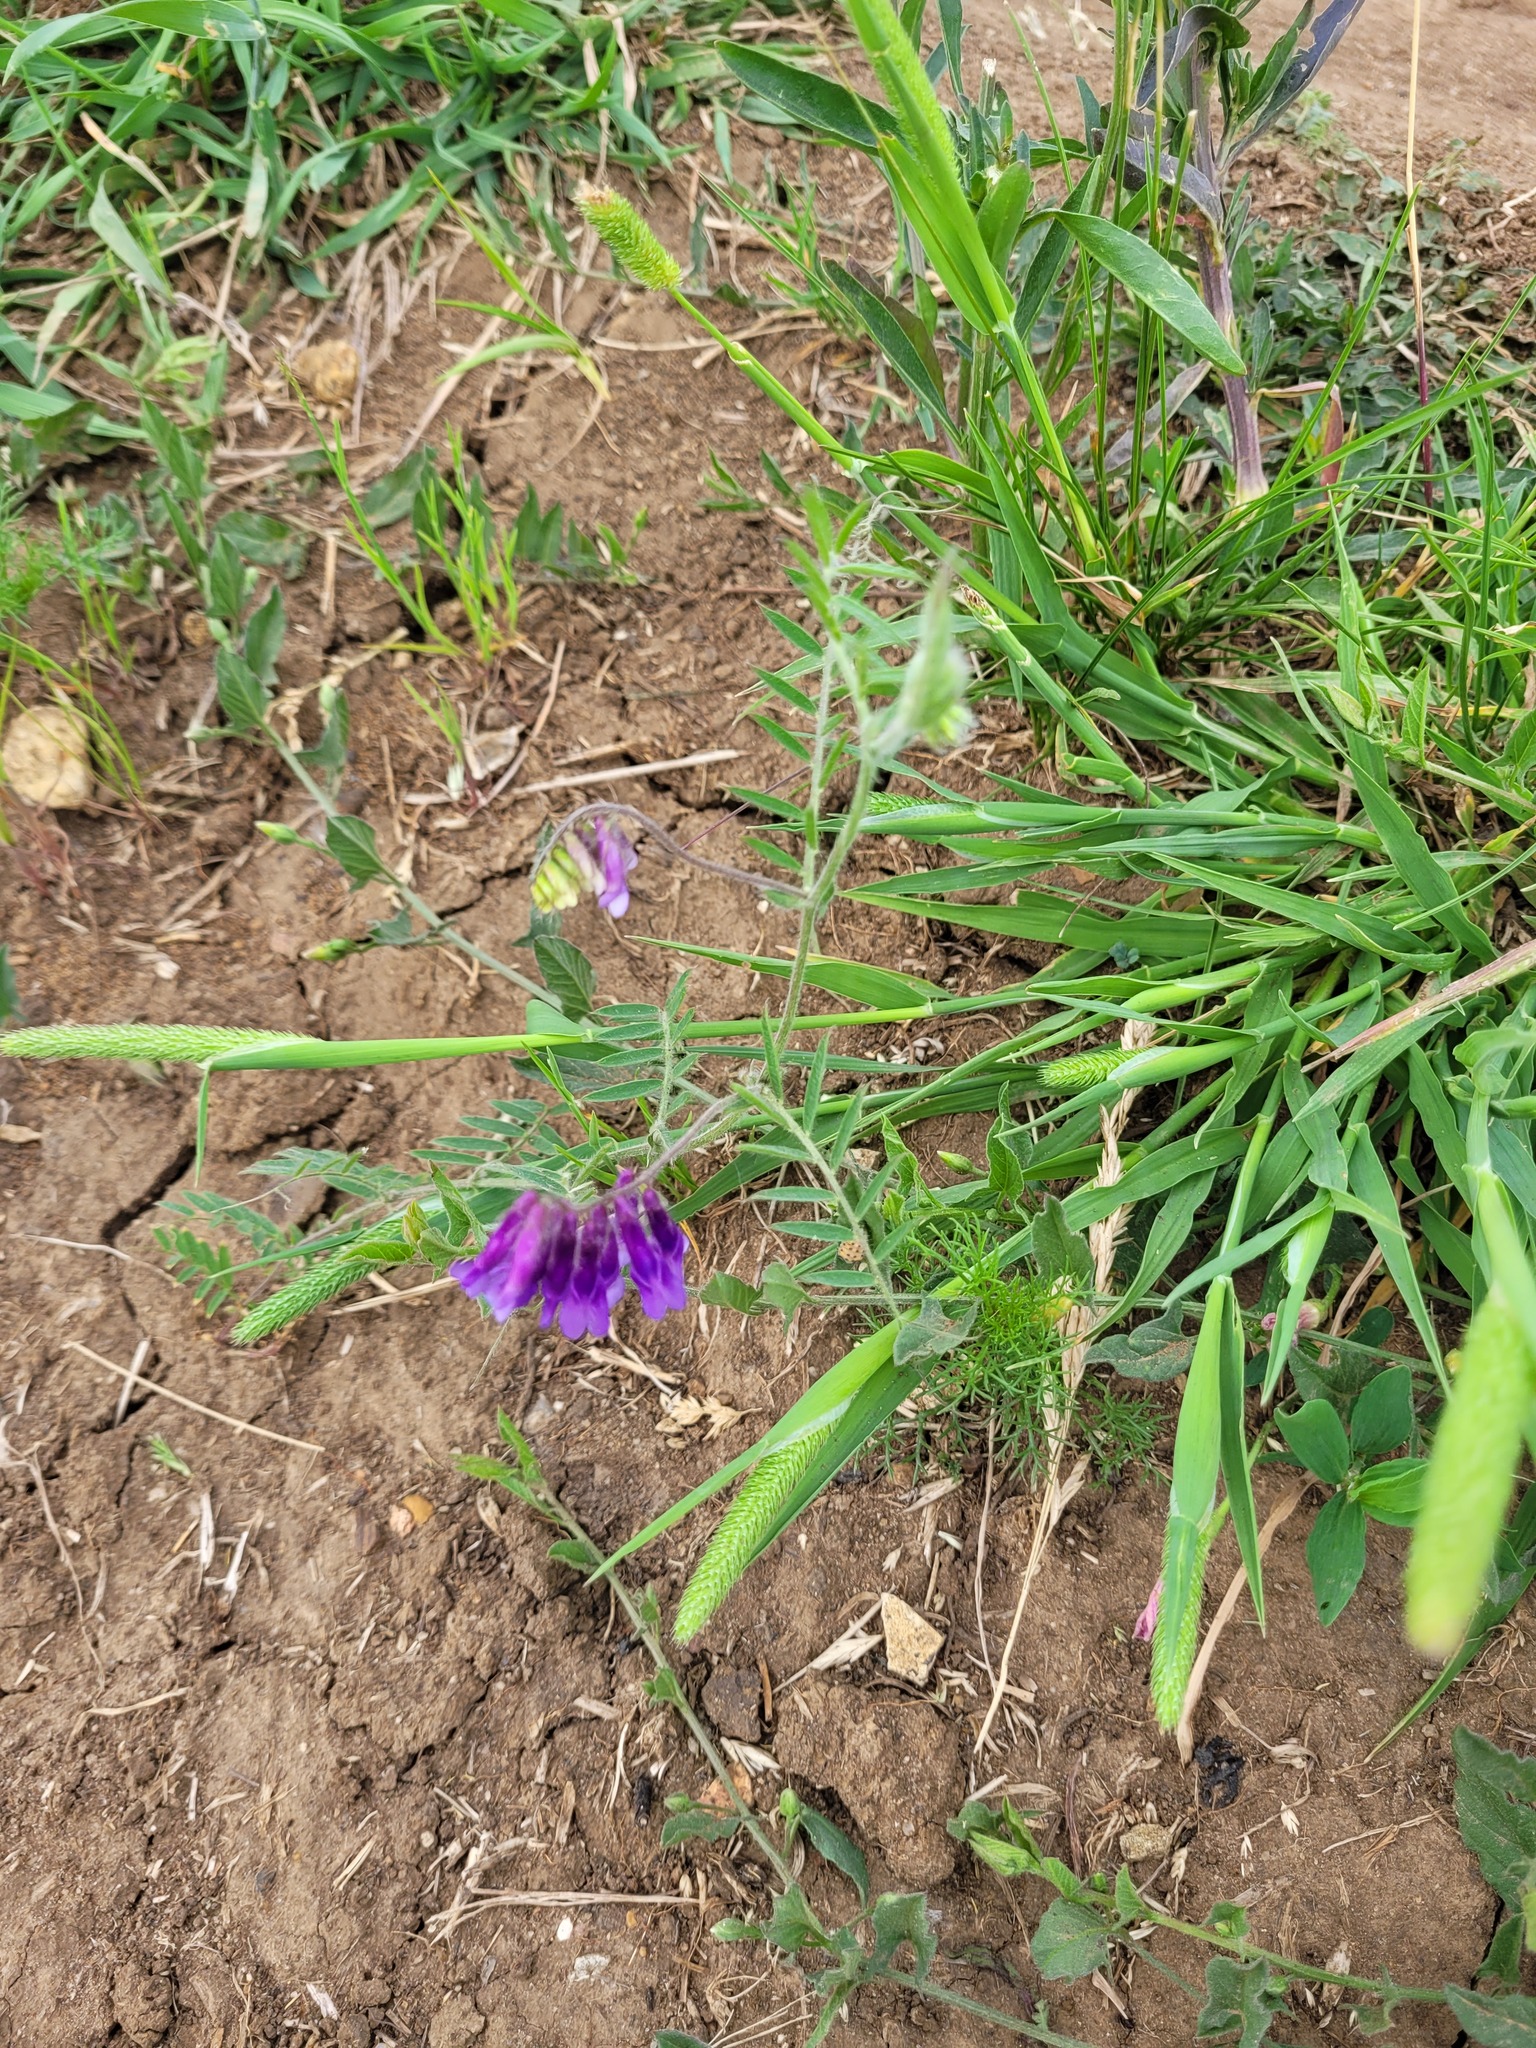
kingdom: Plantae
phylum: Tracheophyta
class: Magnoliopsida
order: Fabales
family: Fabaceae
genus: Vicia
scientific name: Vicia villosa
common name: Fodder vetch
